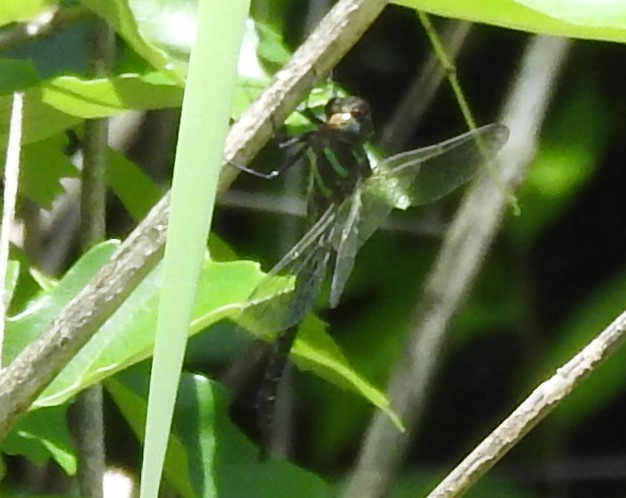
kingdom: Animalia
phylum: Arthropoda
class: Insecta
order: Odonata
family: Aeshnidae
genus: Epiaeschna
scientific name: Epiaeschna heros
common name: Swamp darner
